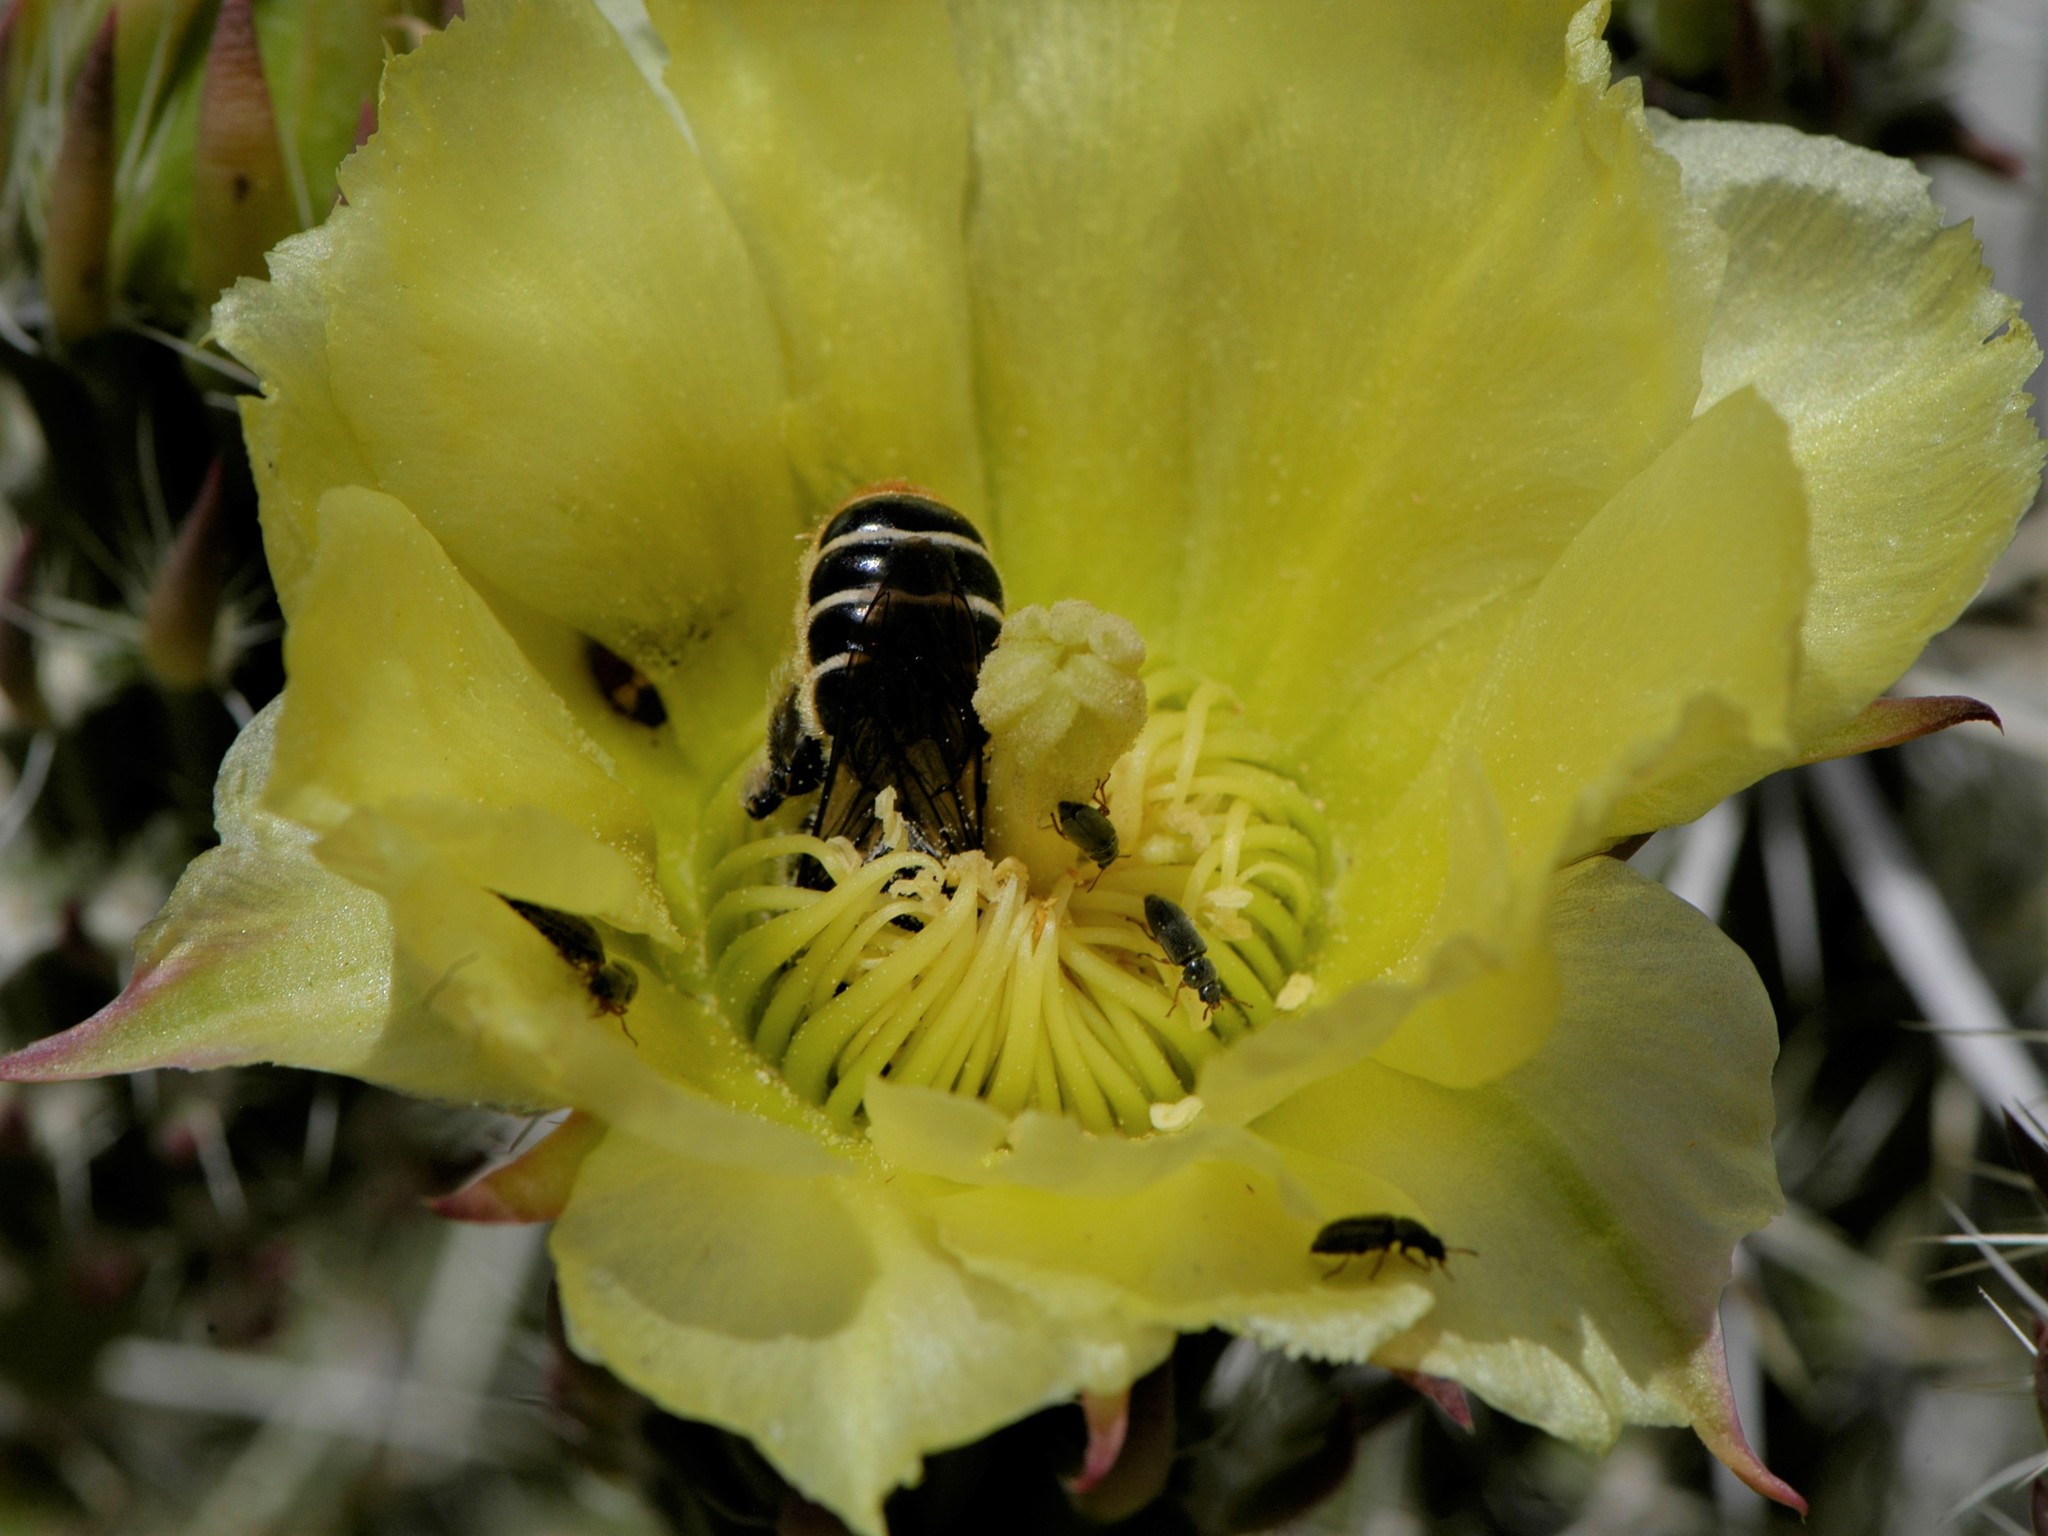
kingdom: Animalia
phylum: Arthropoda
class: Insecta
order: Hymenoptera
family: Megachilidae
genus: Lithurgopsis
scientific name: Lithurgopsis apicalis
